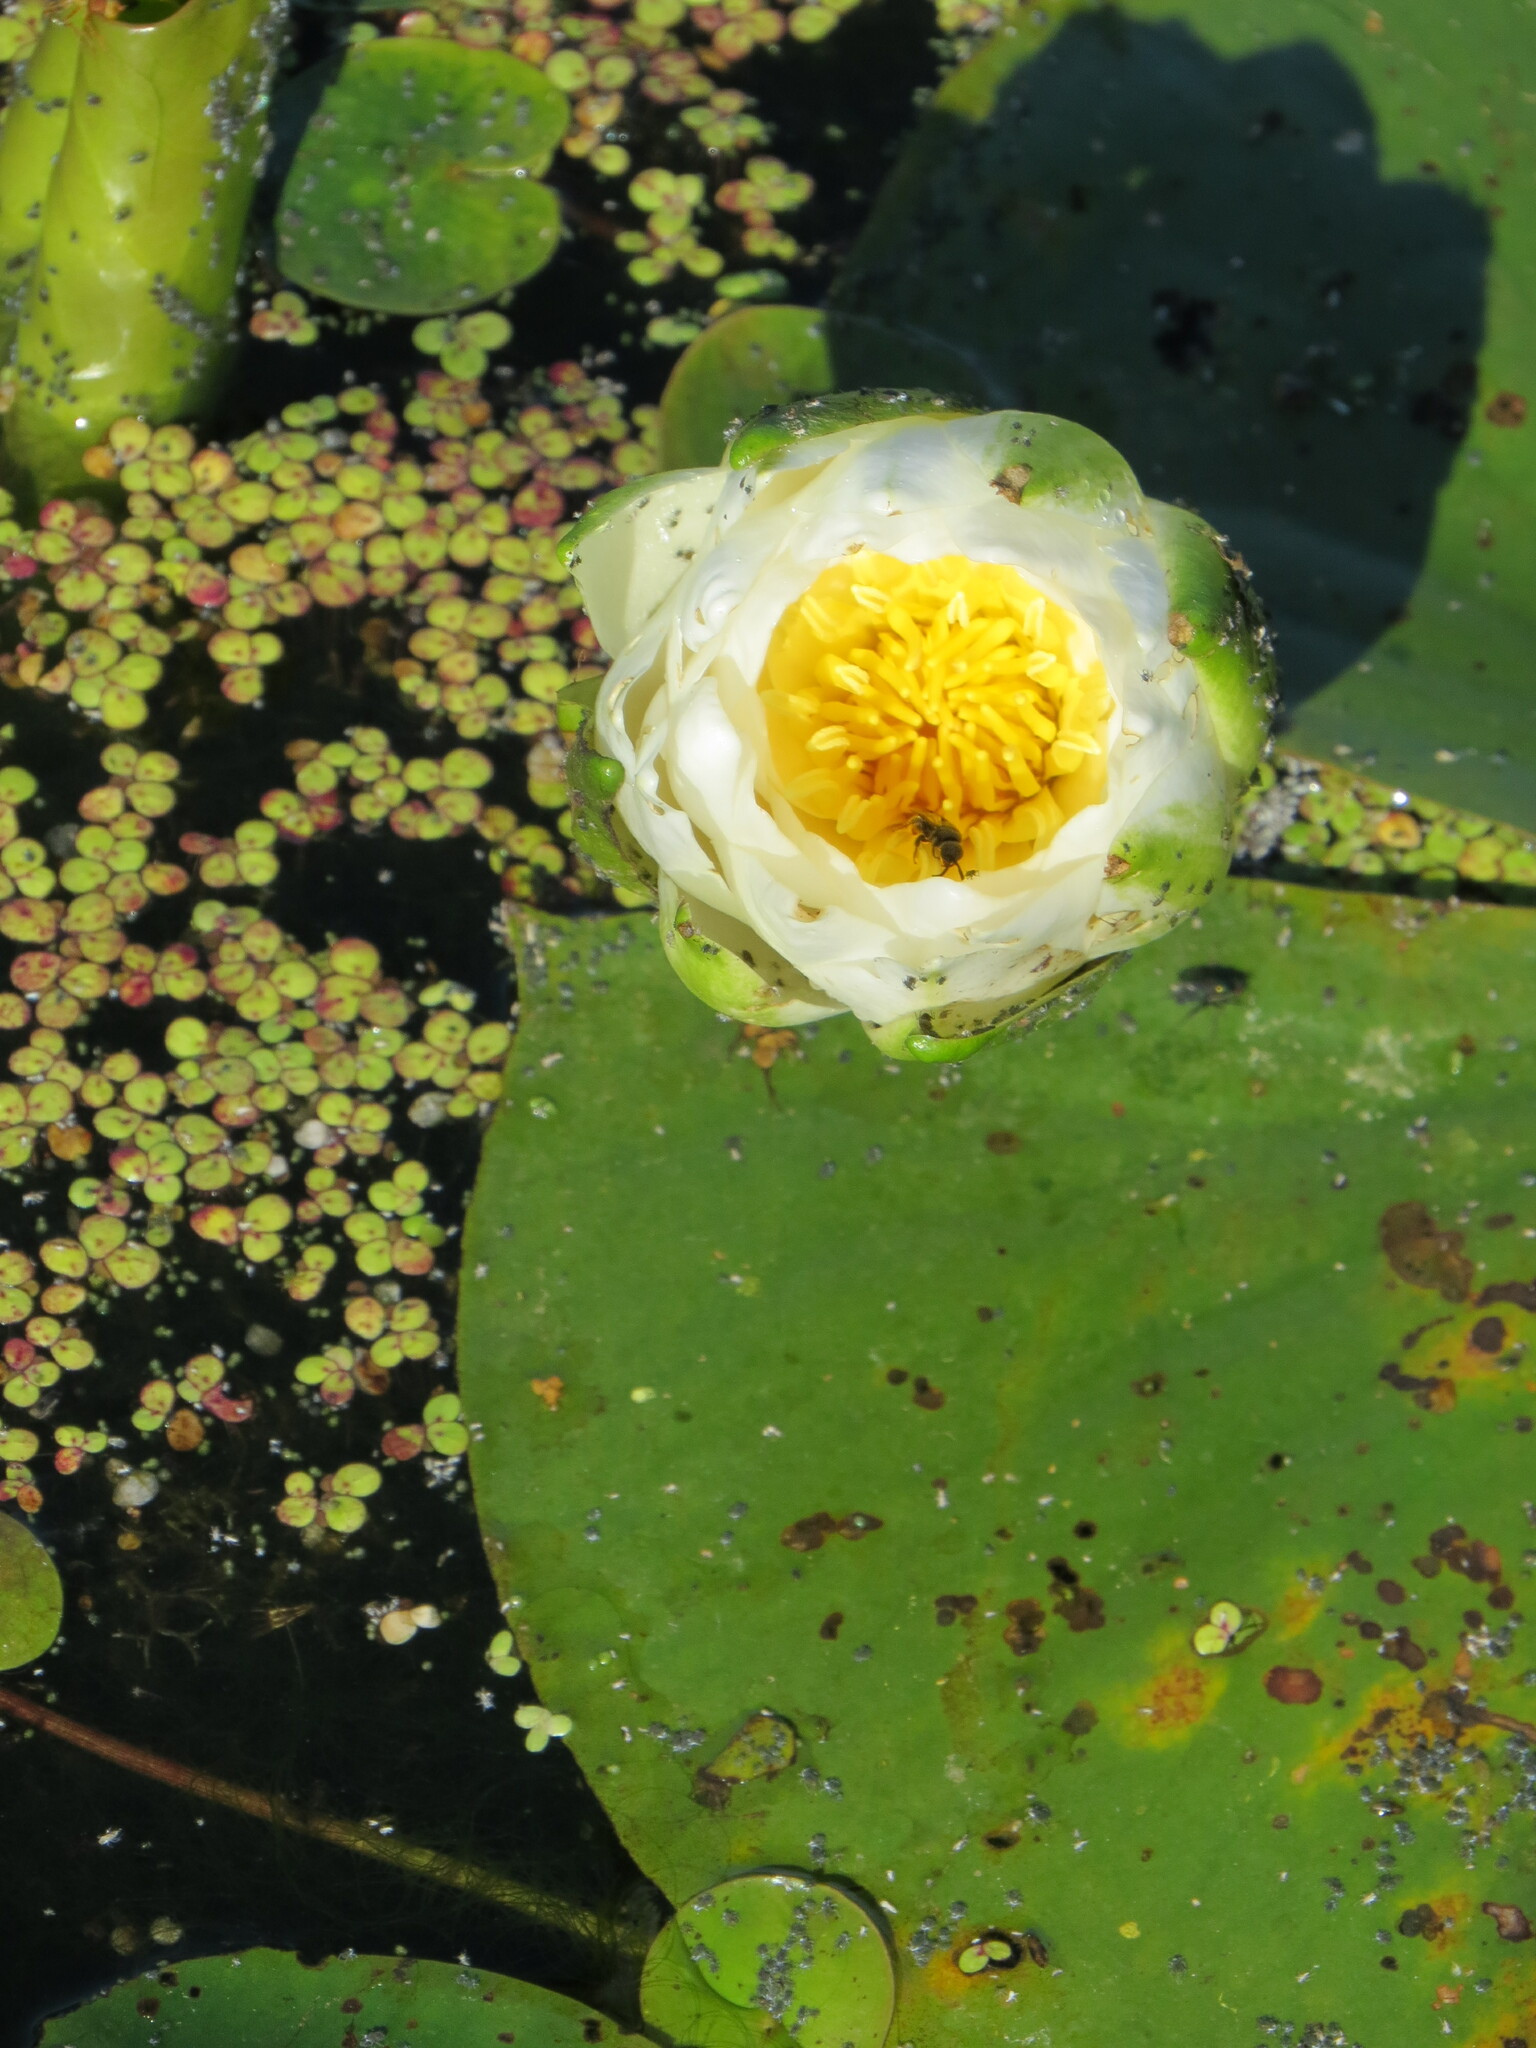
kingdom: Plantae
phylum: Tracheophyta
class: Magnoliopsida
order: Nymphaeales
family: Nymphaeaceae
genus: Nymphaea
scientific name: Nymphaea odorata
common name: Fragrant water-lily
